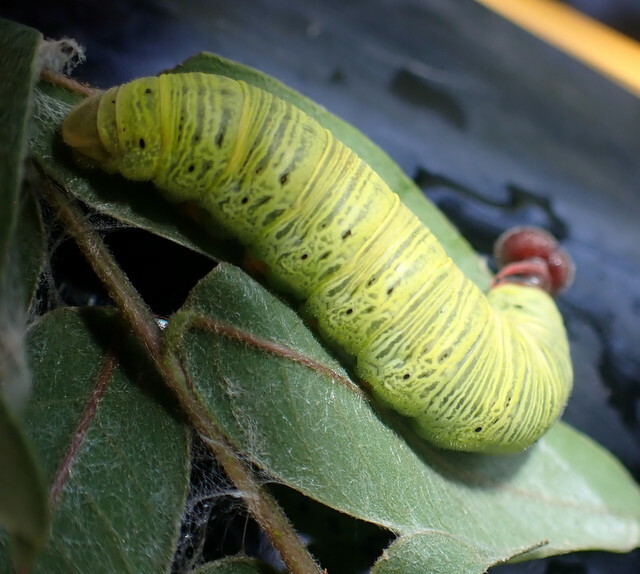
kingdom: Animalia
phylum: Arthropoda
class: Insecta
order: Lepidoptera
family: Hesperiidae
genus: Epargyreus
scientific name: Epargyreus clarus
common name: Silver-spotted skipper
